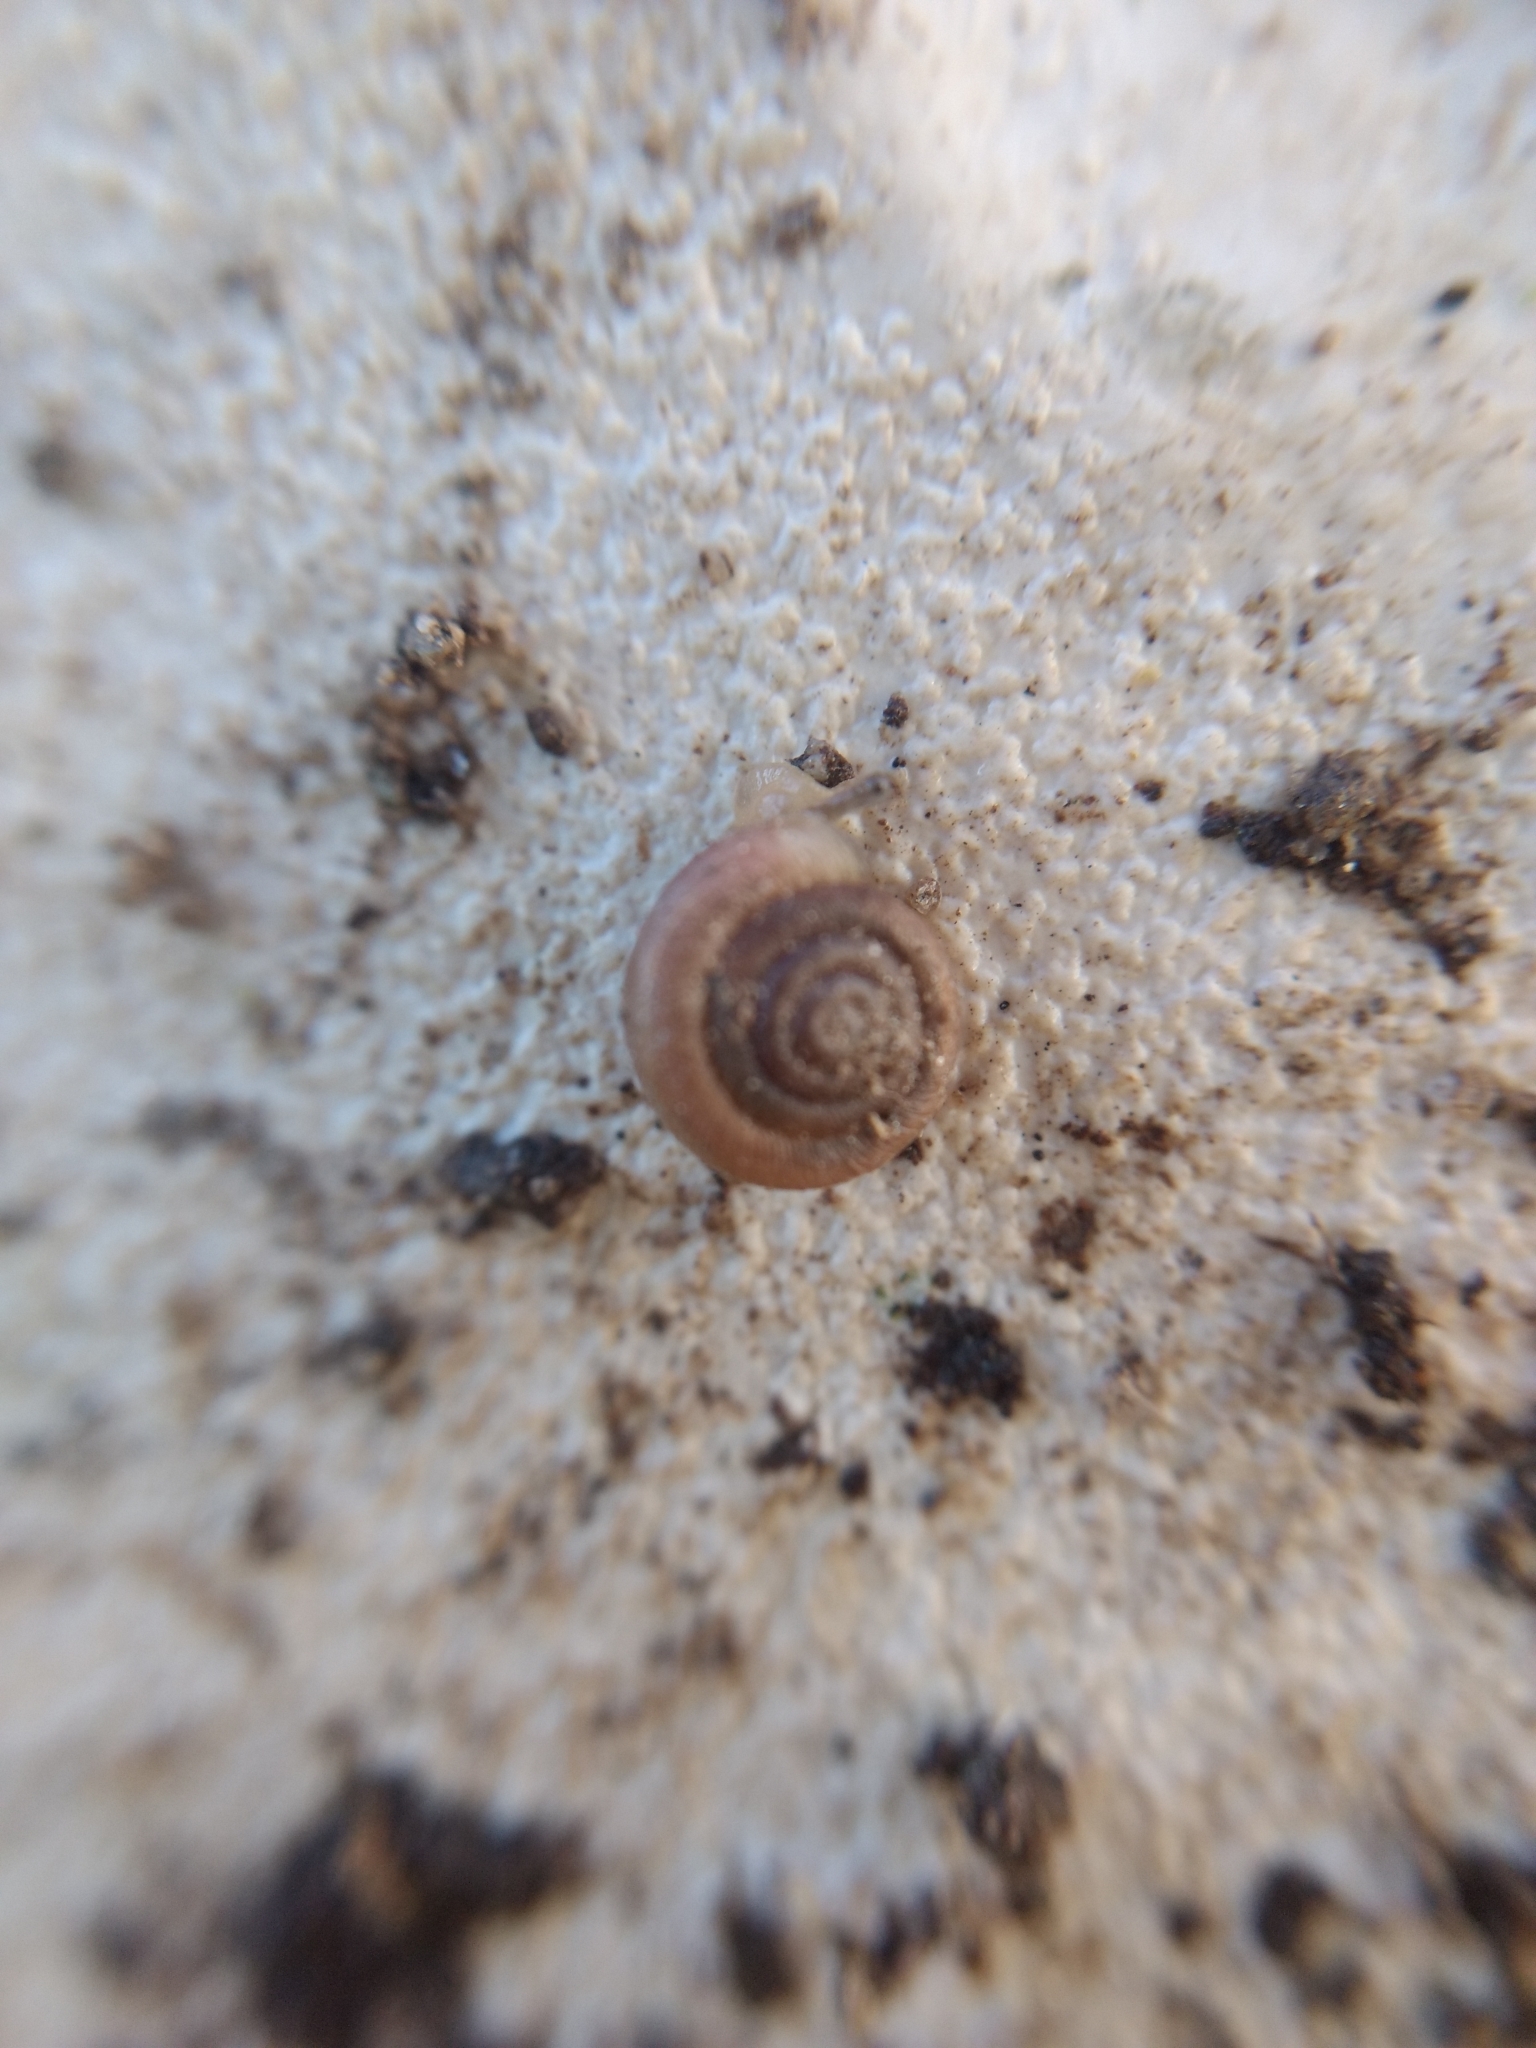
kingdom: Animalia
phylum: Mollusca
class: Gastropoda
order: Stylommatophora
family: Polygyridae
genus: Polygyra
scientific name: Polygyra cereolus
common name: Southern flatcone snail
